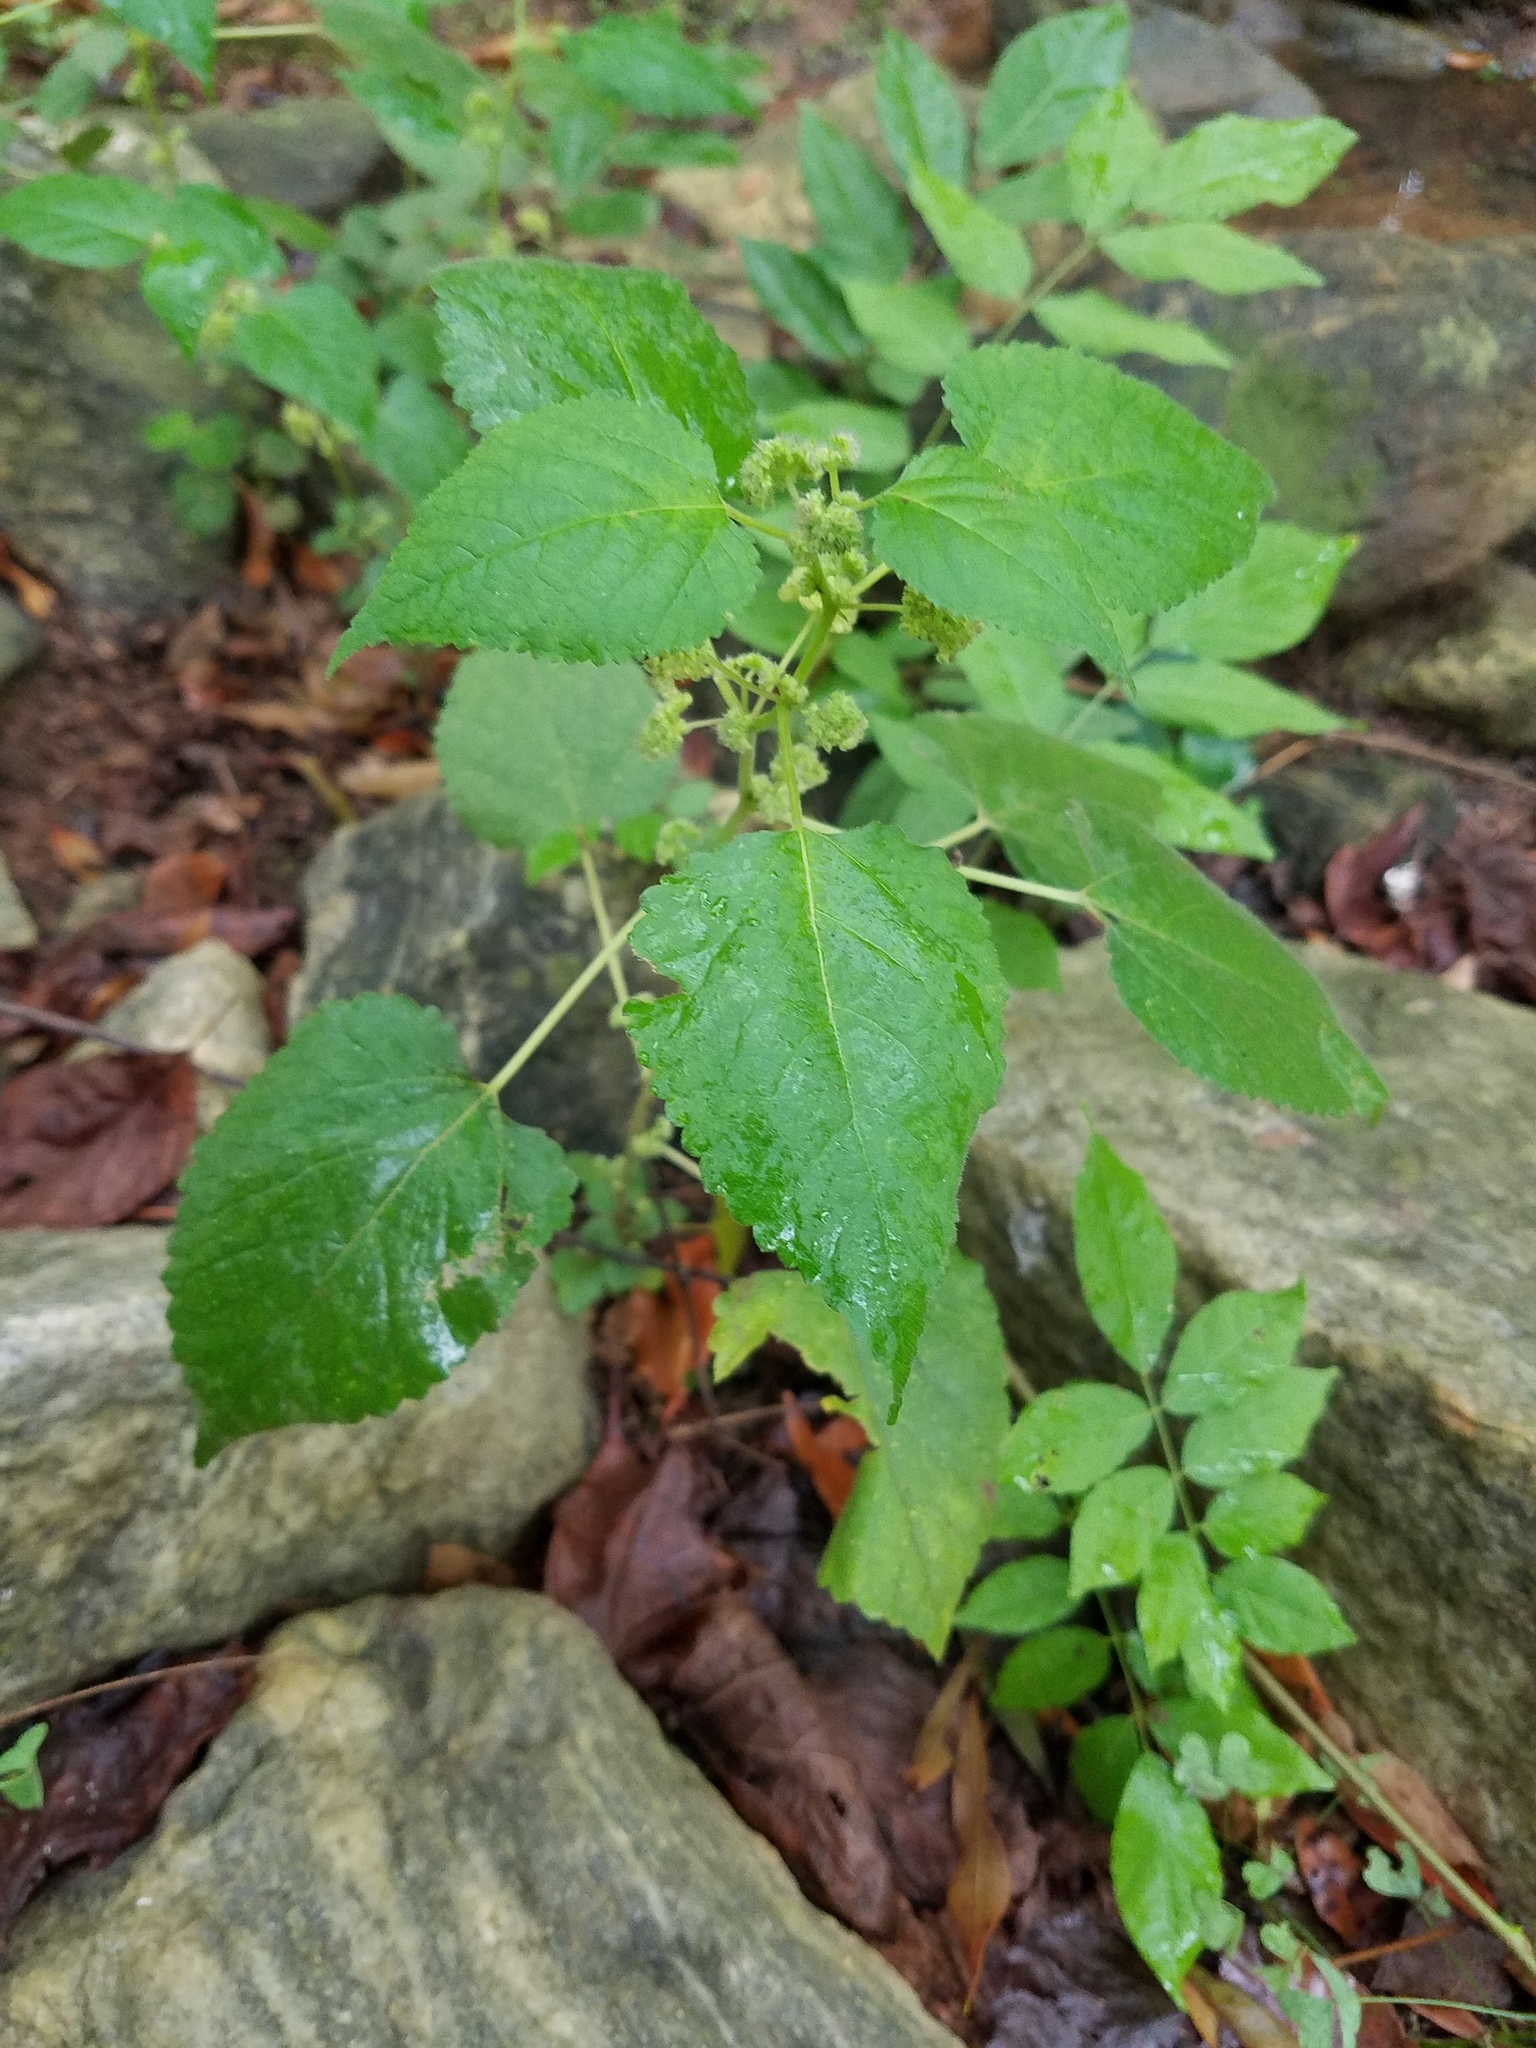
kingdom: Plantae
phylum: Tracheophyta
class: Magnoliopsida
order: Rosales
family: Moraceae
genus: Fatoua
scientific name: Fatoua villosa
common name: Hairy crabweed
